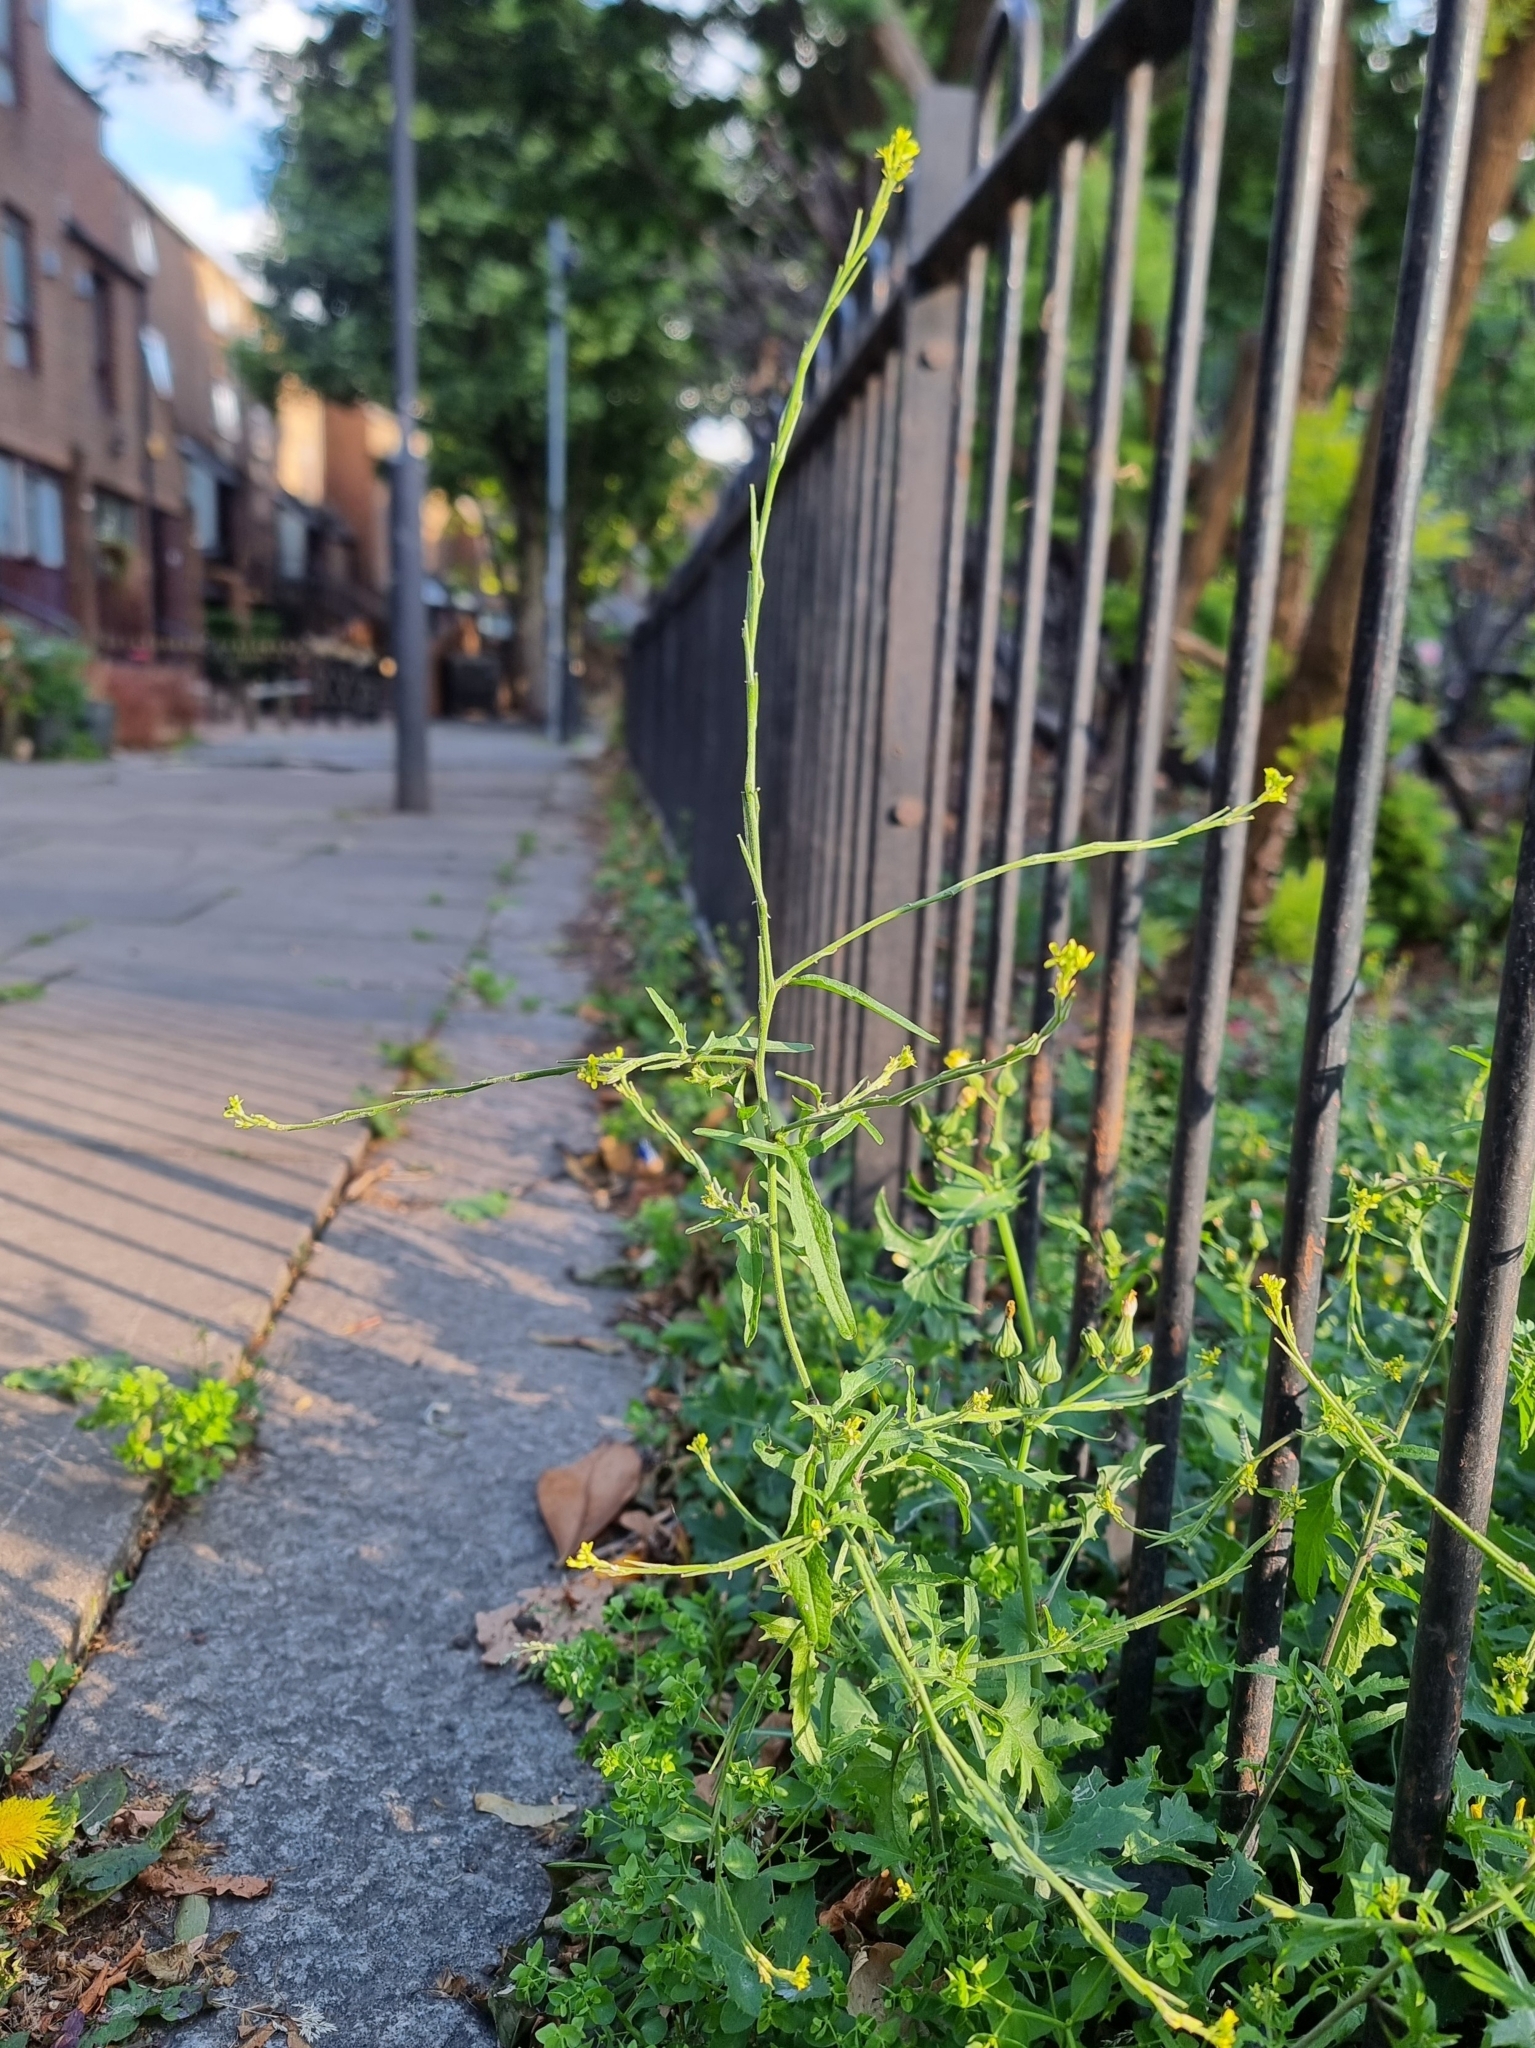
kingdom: Plantae
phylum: Tracheophyta
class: Magnoliopsida
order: Brassicales
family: Brassicaceae
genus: Sisymbrium
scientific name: Sisymbrium officinale
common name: Hedge mustard
